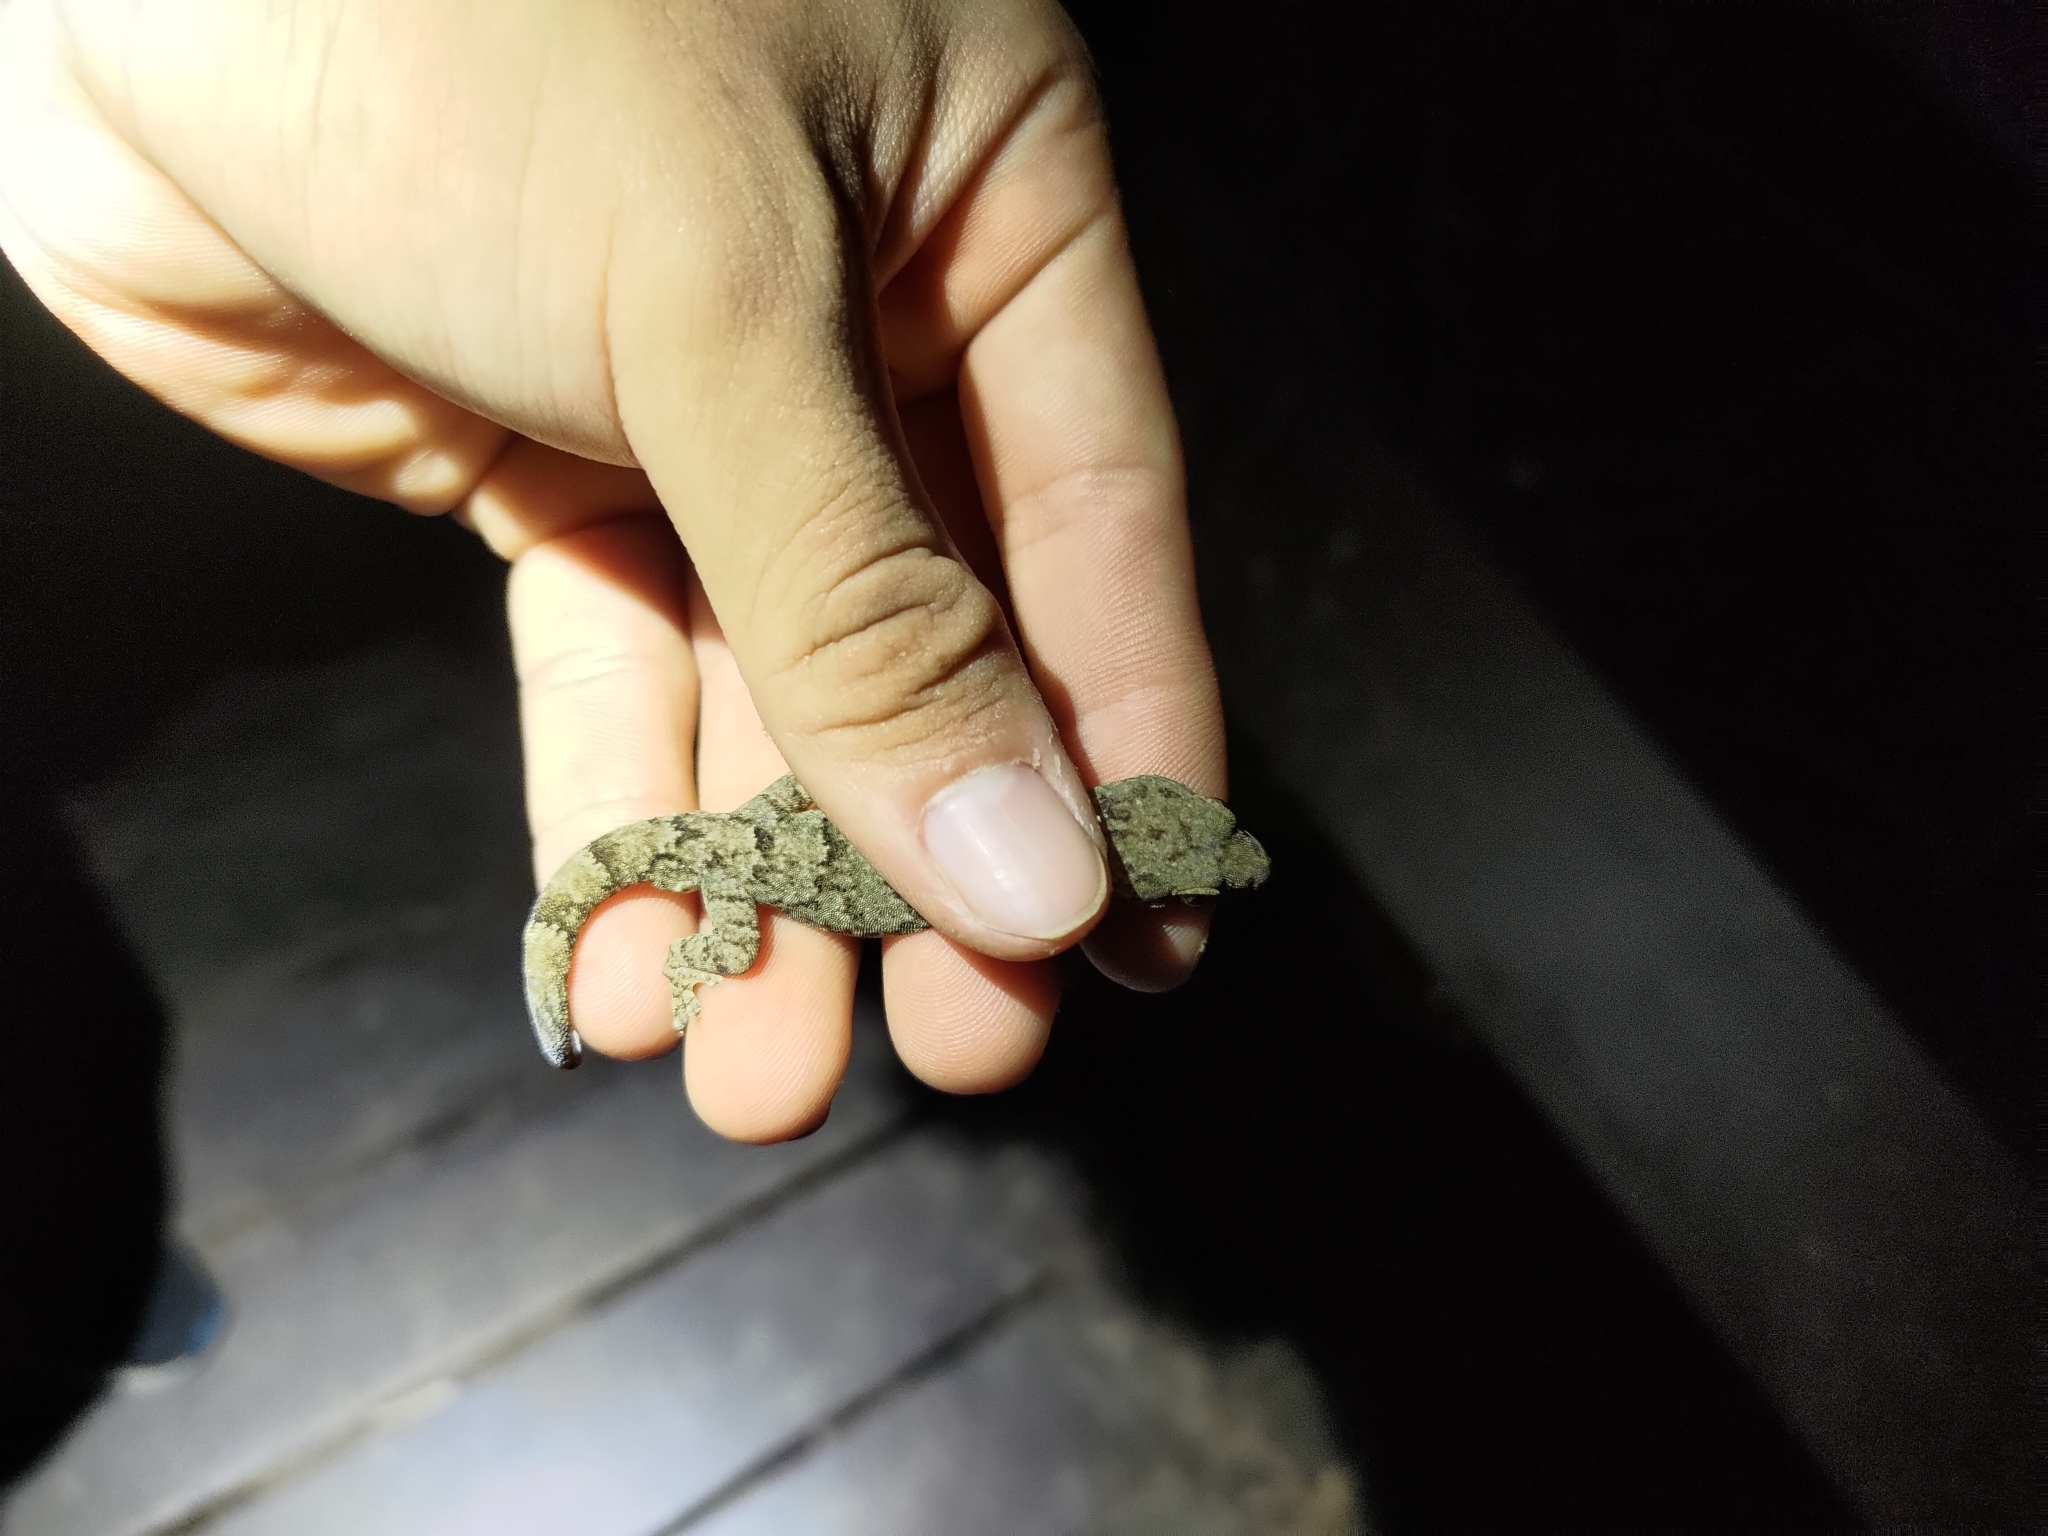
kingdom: Animalia
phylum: Chordata
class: Squamata
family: Gekkonidae
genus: Gekko
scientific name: Gekko hokouensis
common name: Kwangsi gecko
